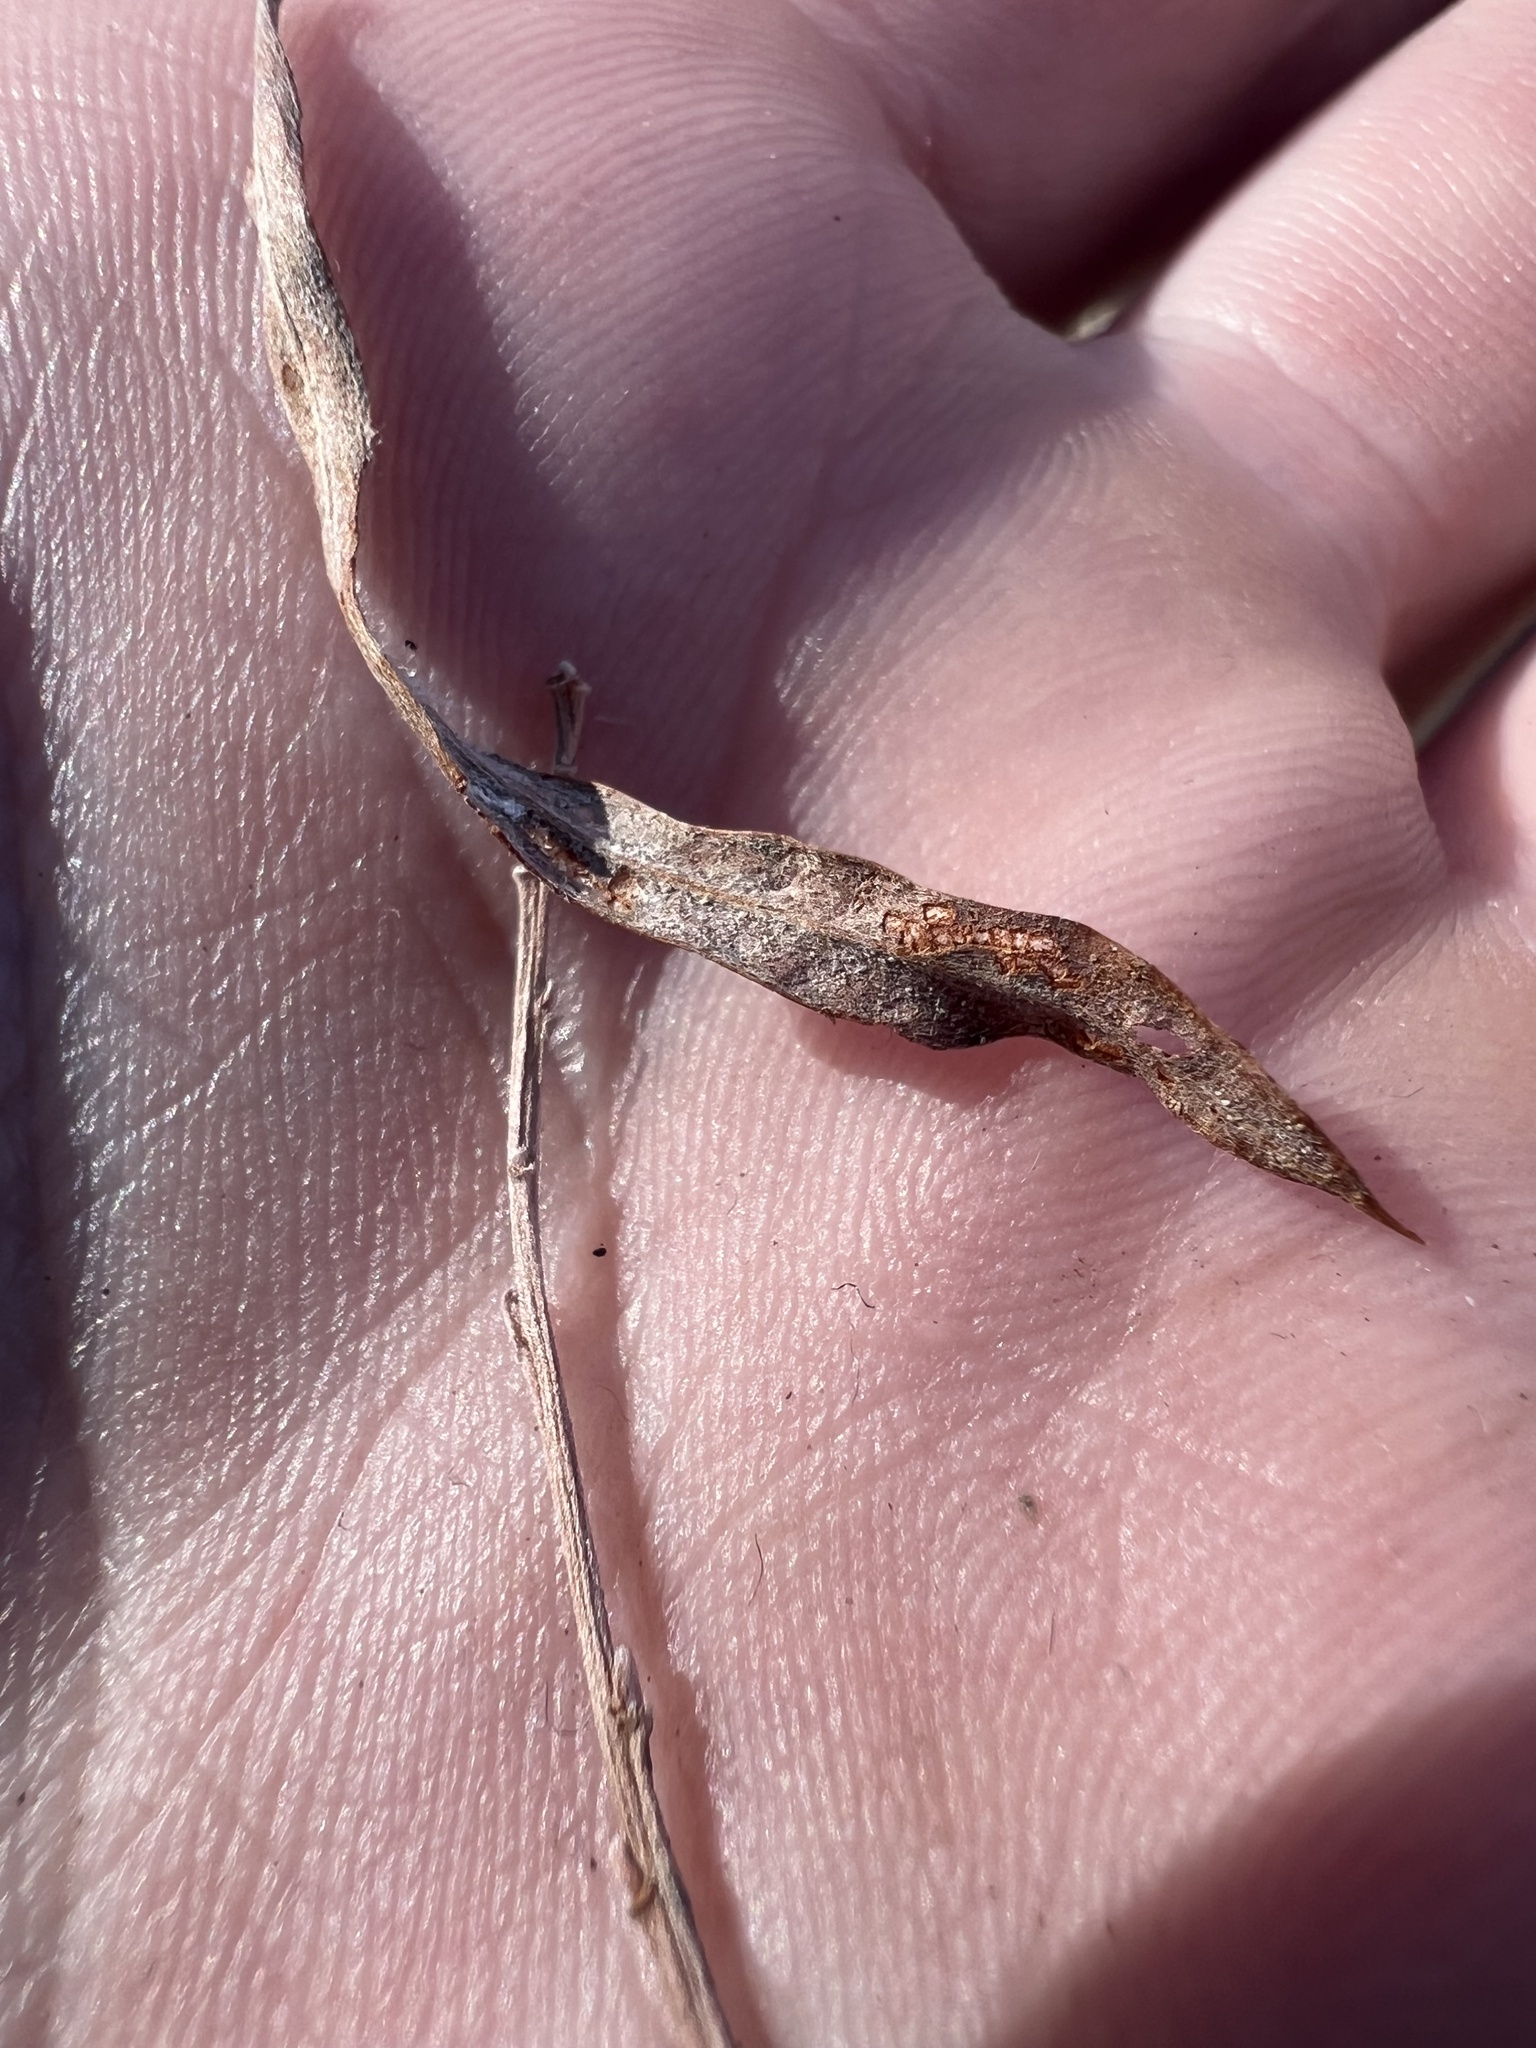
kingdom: Animalia
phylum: Arthropoda
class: Insecta
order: Diptera
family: Cecidomyiidae
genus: Rabdophaga
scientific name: Rabdophaga strobiloides
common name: Willow pinecone gall midge
